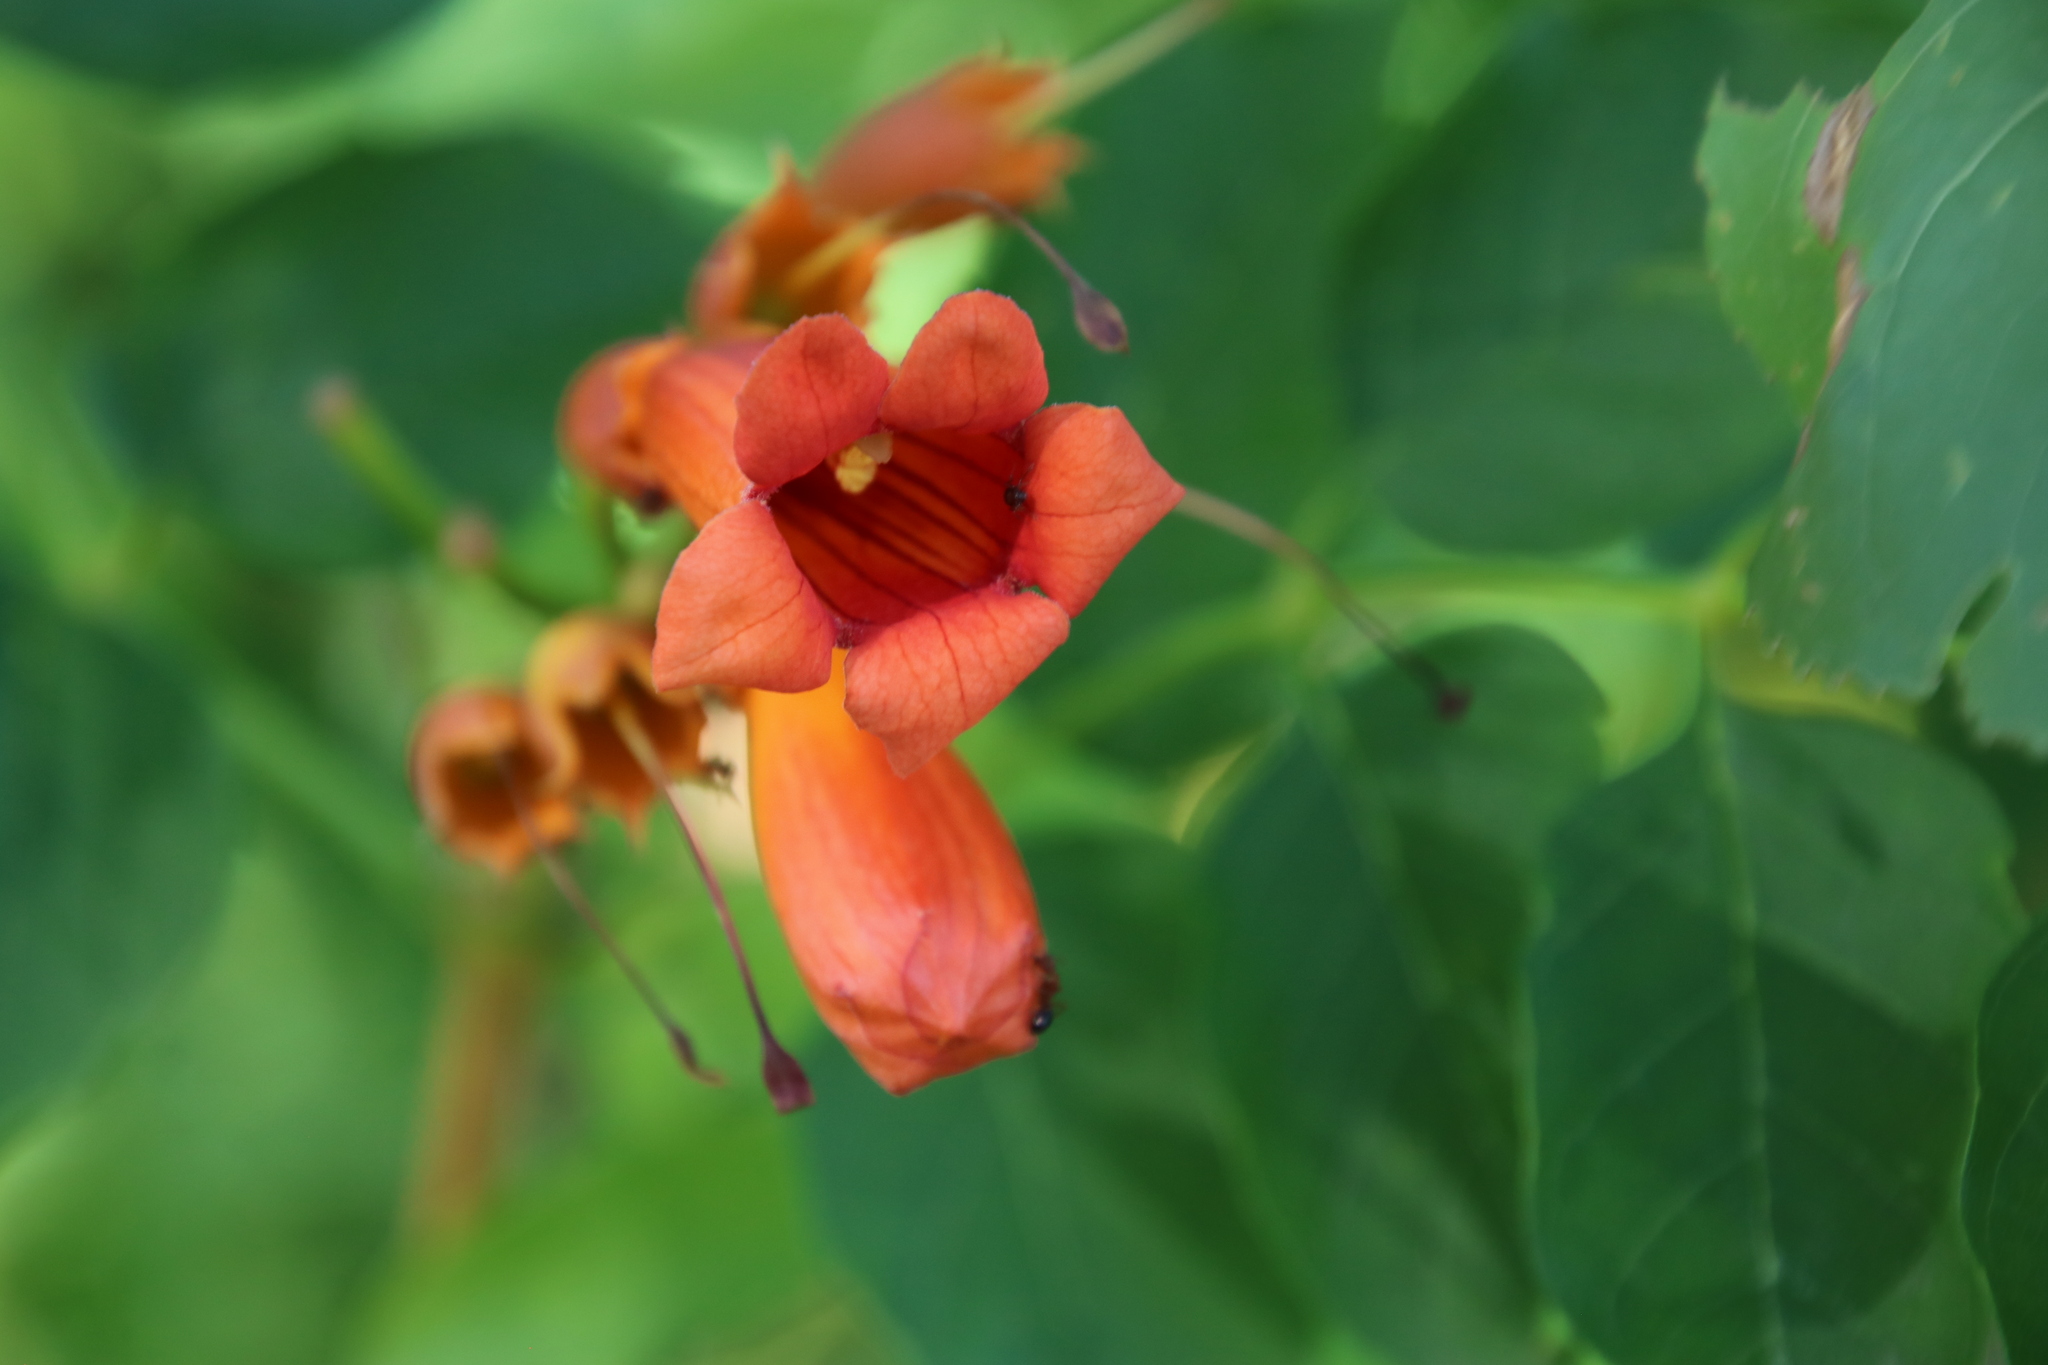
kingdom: Plantae
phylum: Tracheophyta
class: Magnoliopsida
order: Lamiales
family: Bignoniaceae
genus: Campsis
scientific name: Campsis radicans
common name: Trumpet-creeper
